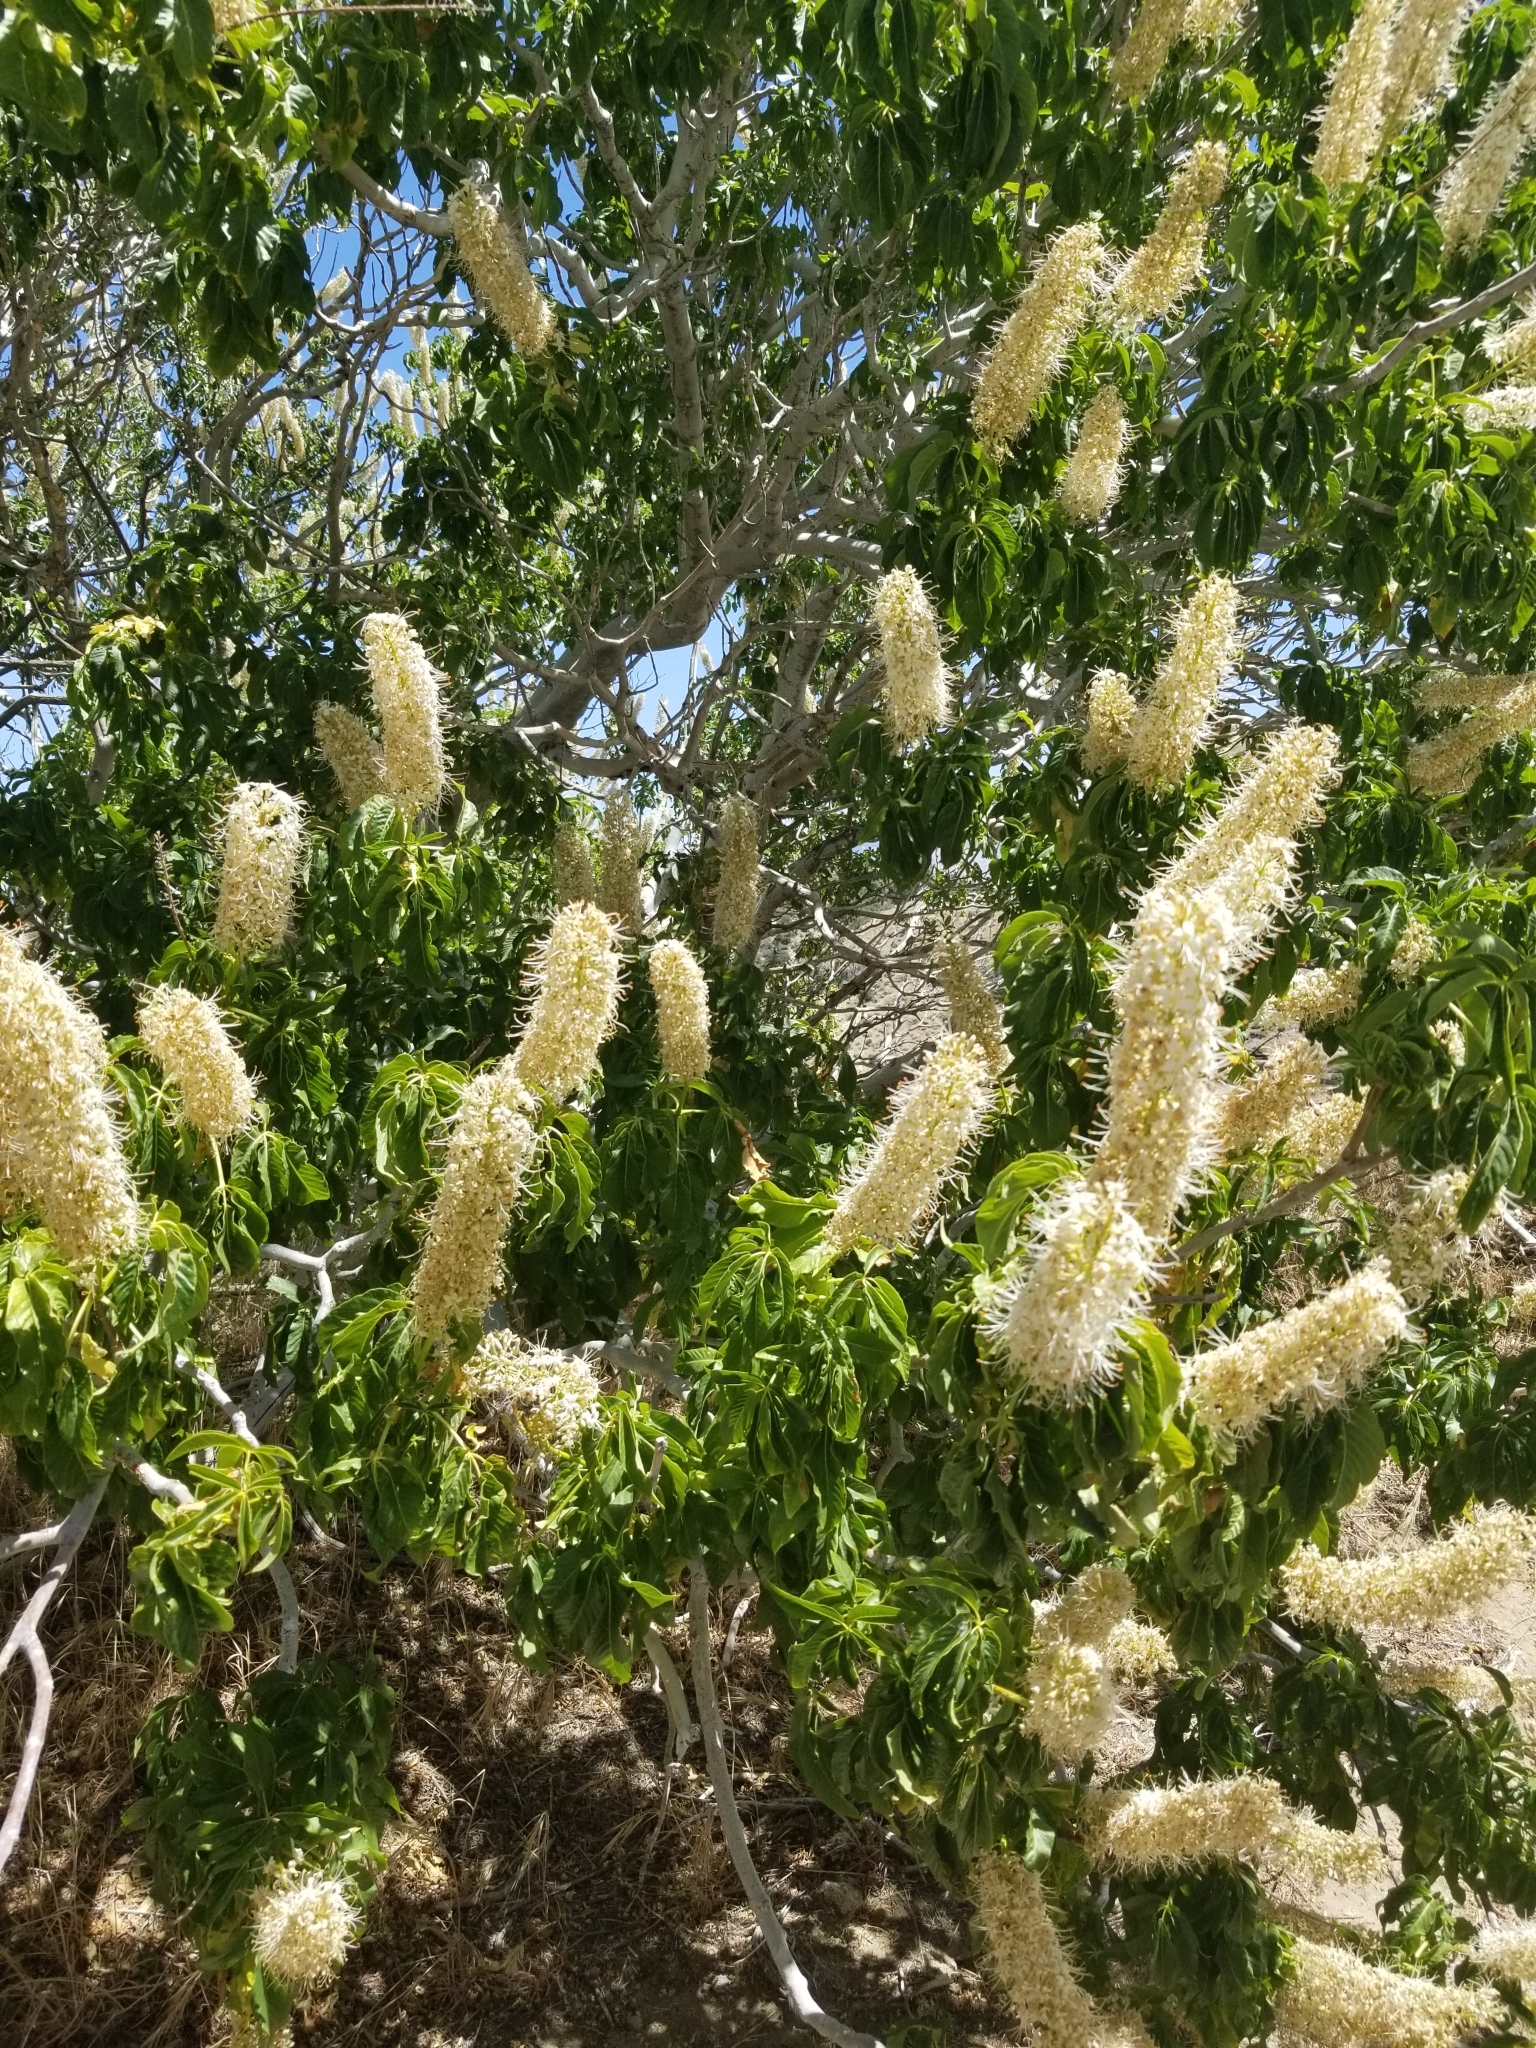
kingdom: Plantae
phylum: Tracheophyta
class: Magnoliopsida
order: Sapindales
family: Sapindaceae
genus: Aesculus
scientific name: Aesculus californica
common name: California buckeye
